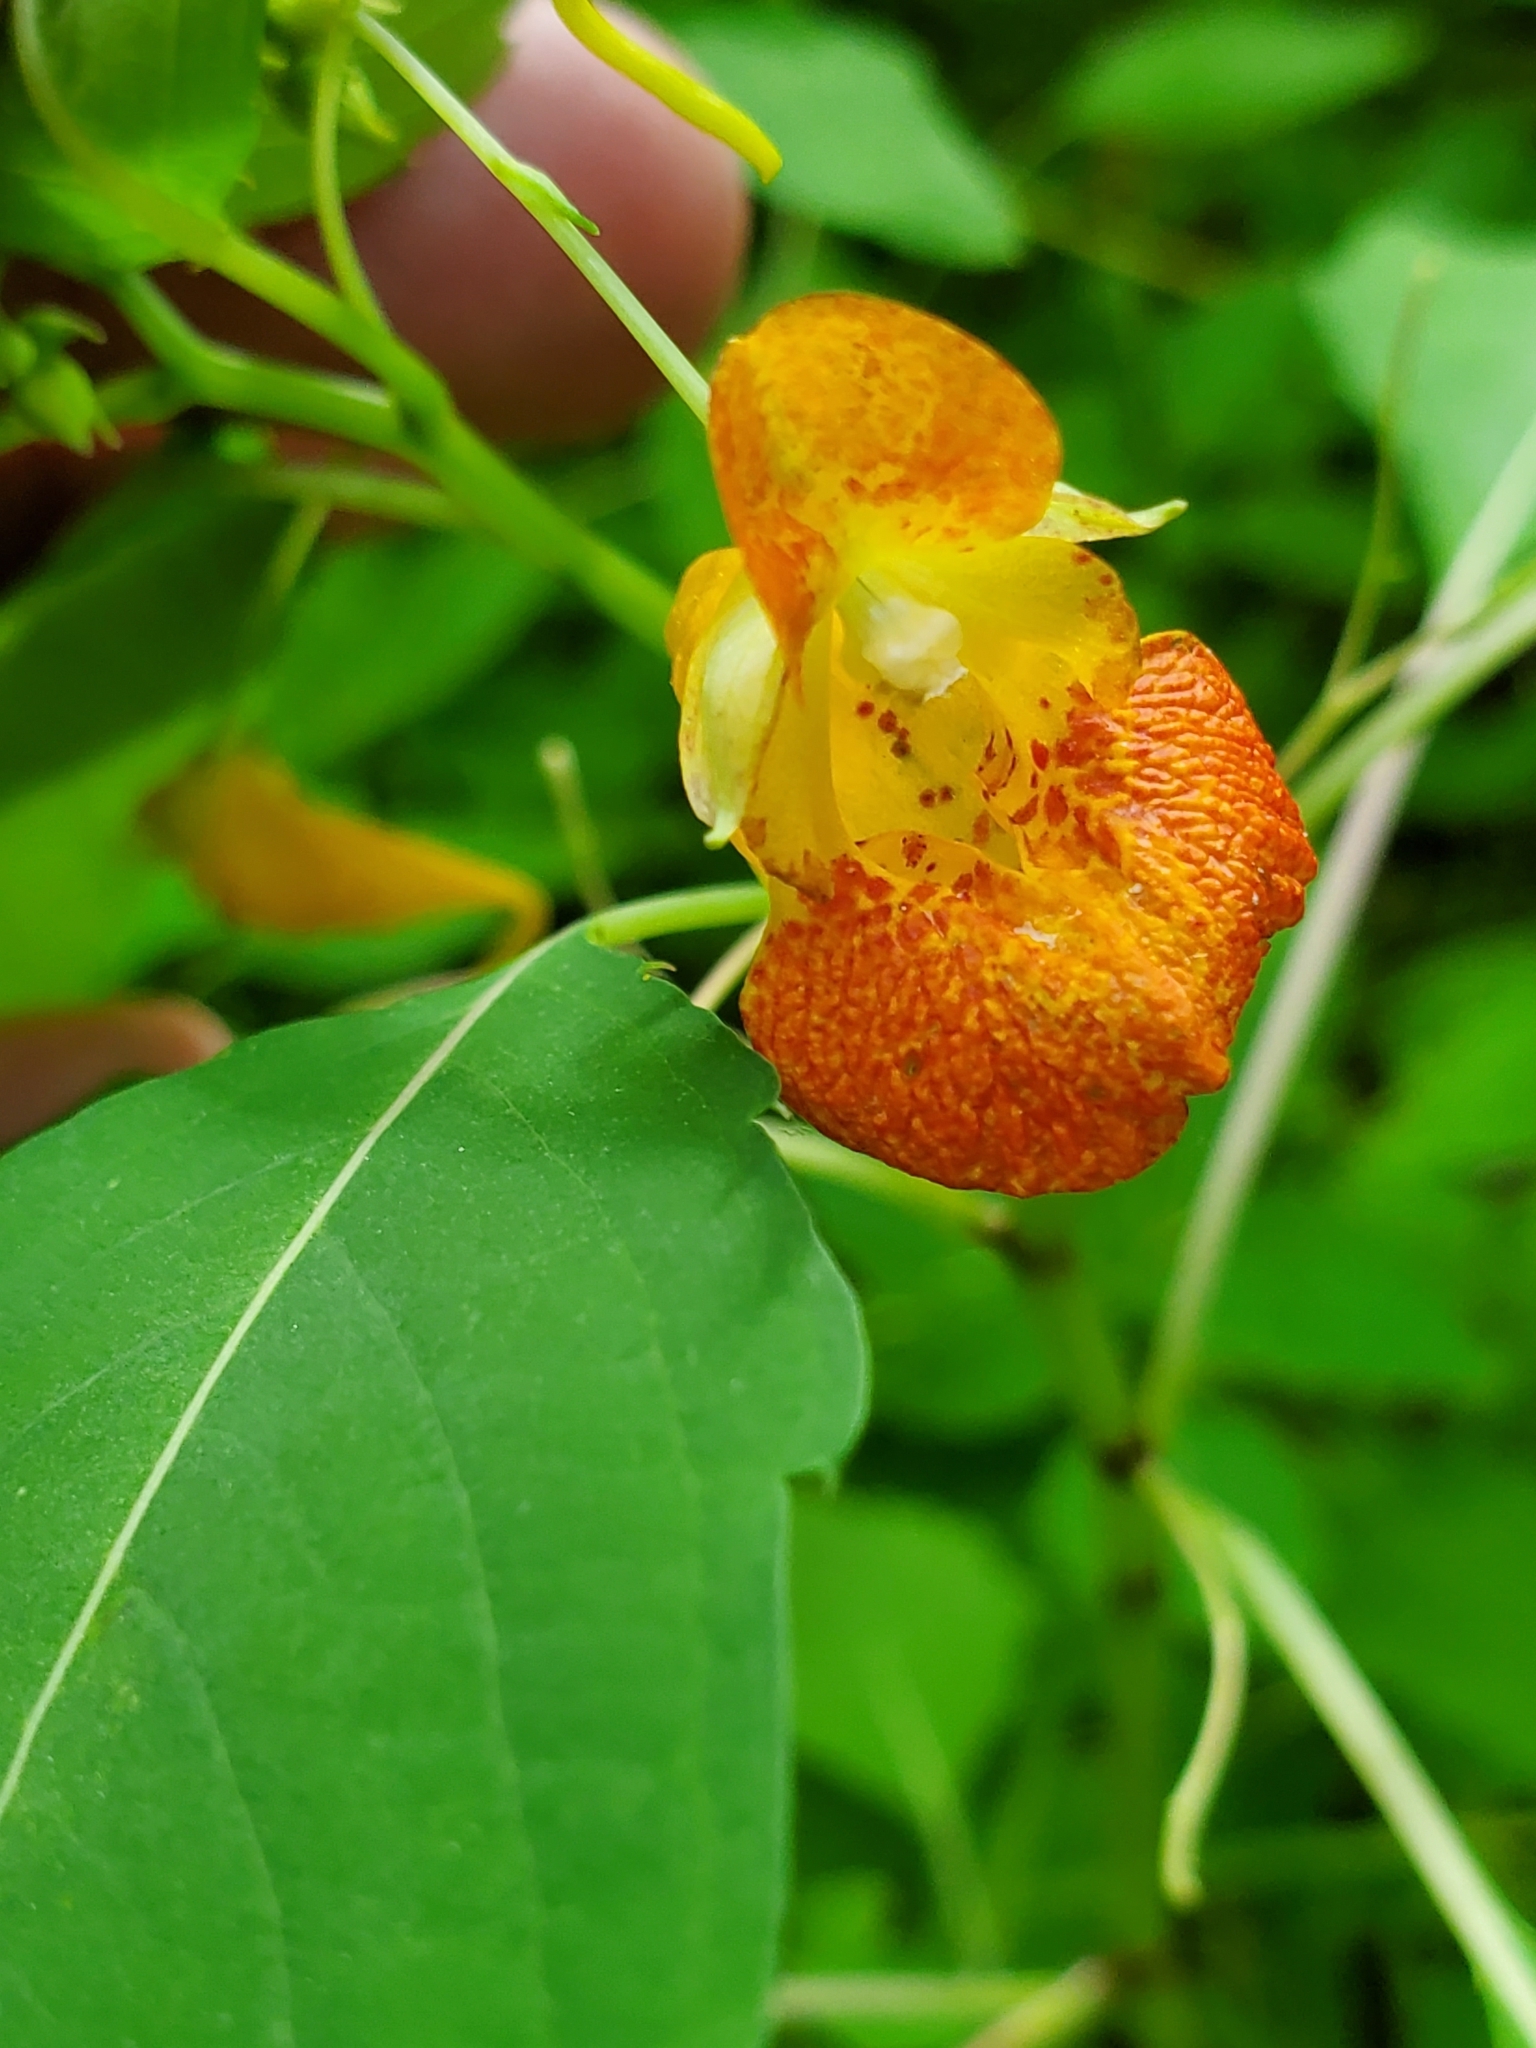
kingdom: Plantae
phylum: Tracheophyta
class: Magnoliopsida
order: Ericales
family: Balsaminaceae
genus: Impatiens
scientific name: Impatiens capensis
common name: Orange balsam
